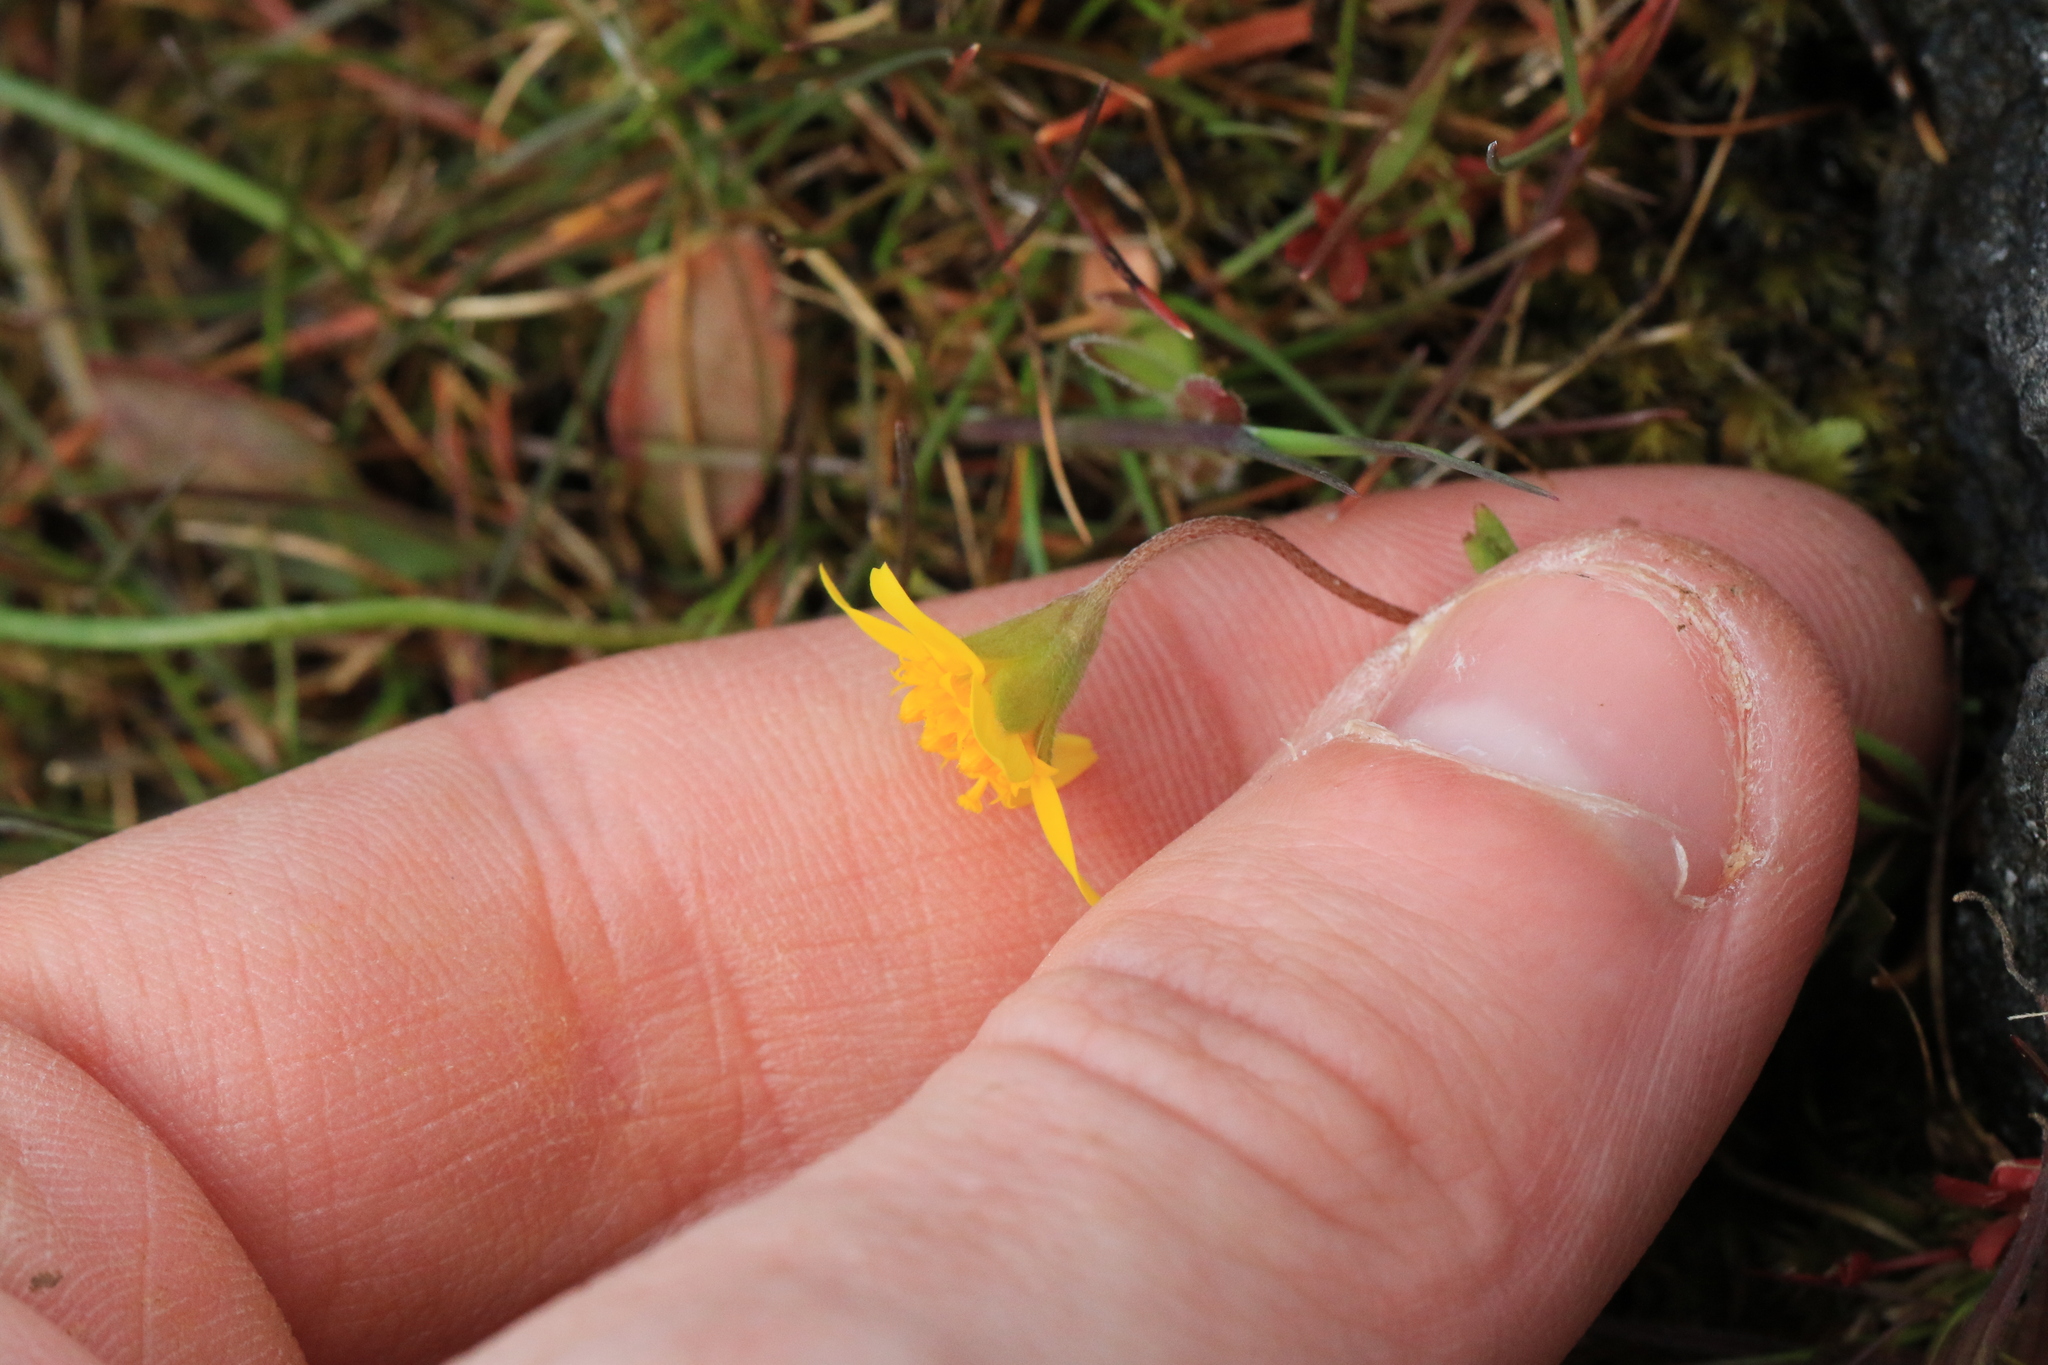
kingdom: Plantae
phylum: Tracheophyta
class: Magnoliopsida
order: Asterales
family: Asteraceae
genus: Crocidium
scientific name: Crocidium multicaule
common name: Common spring gold
